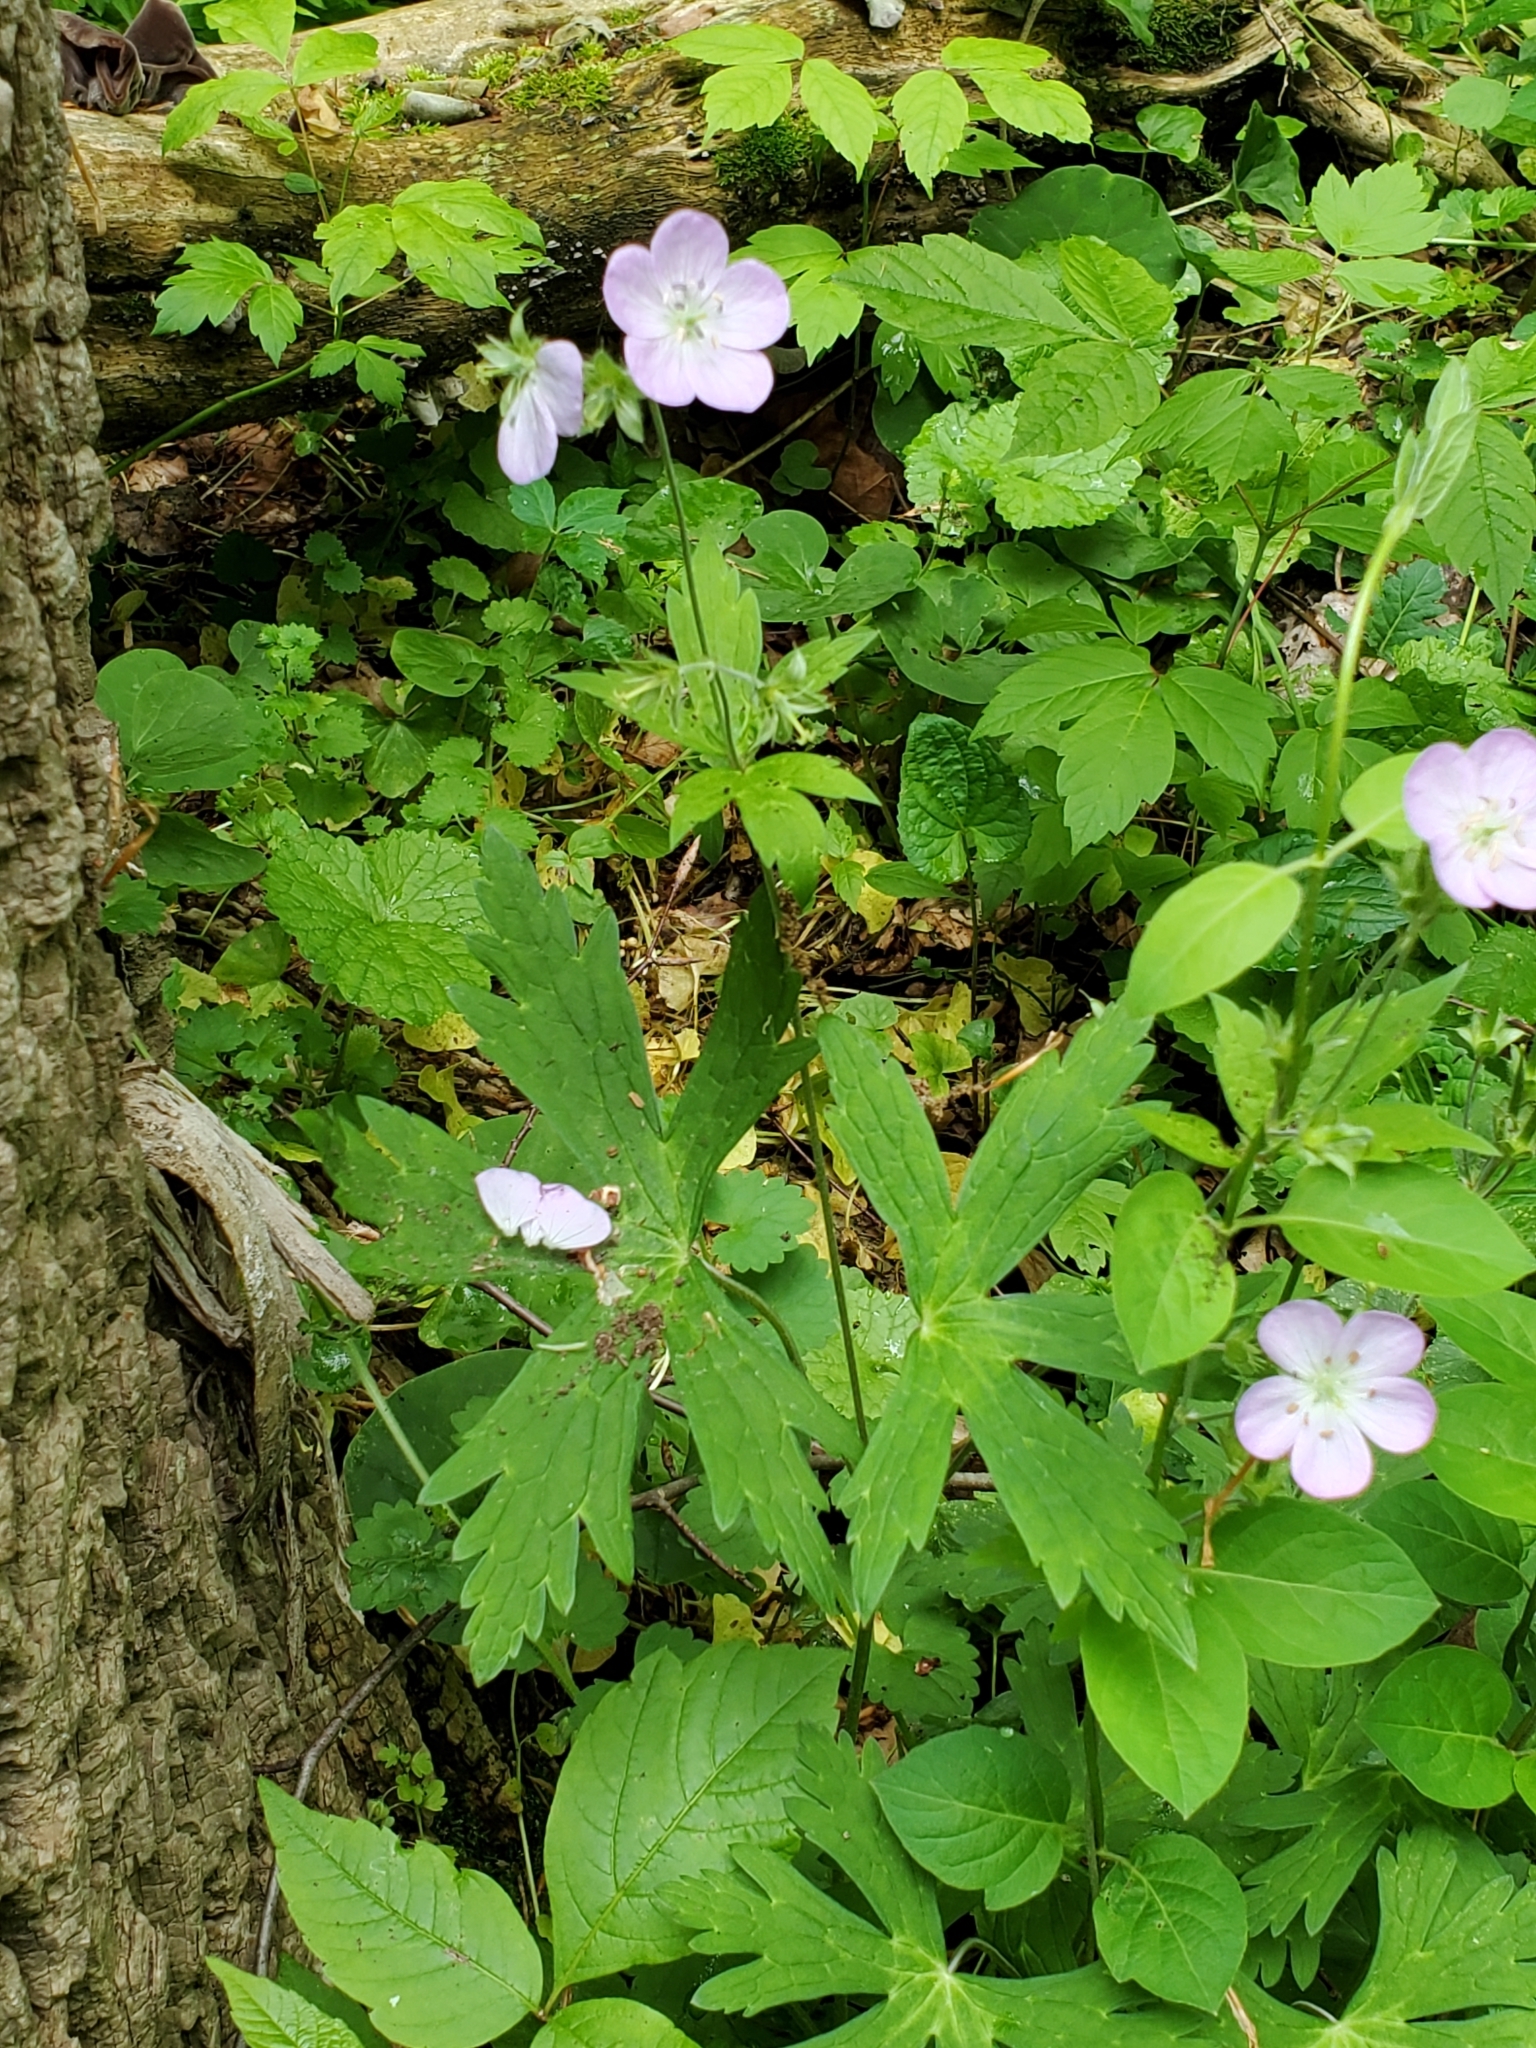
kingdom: Plantae
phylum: Tracheophyta
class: Magnoliopsida
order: Geraniales
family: Geraniaceae
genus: Geranium
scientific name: Geranium maculatum
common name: Spotted geranium
